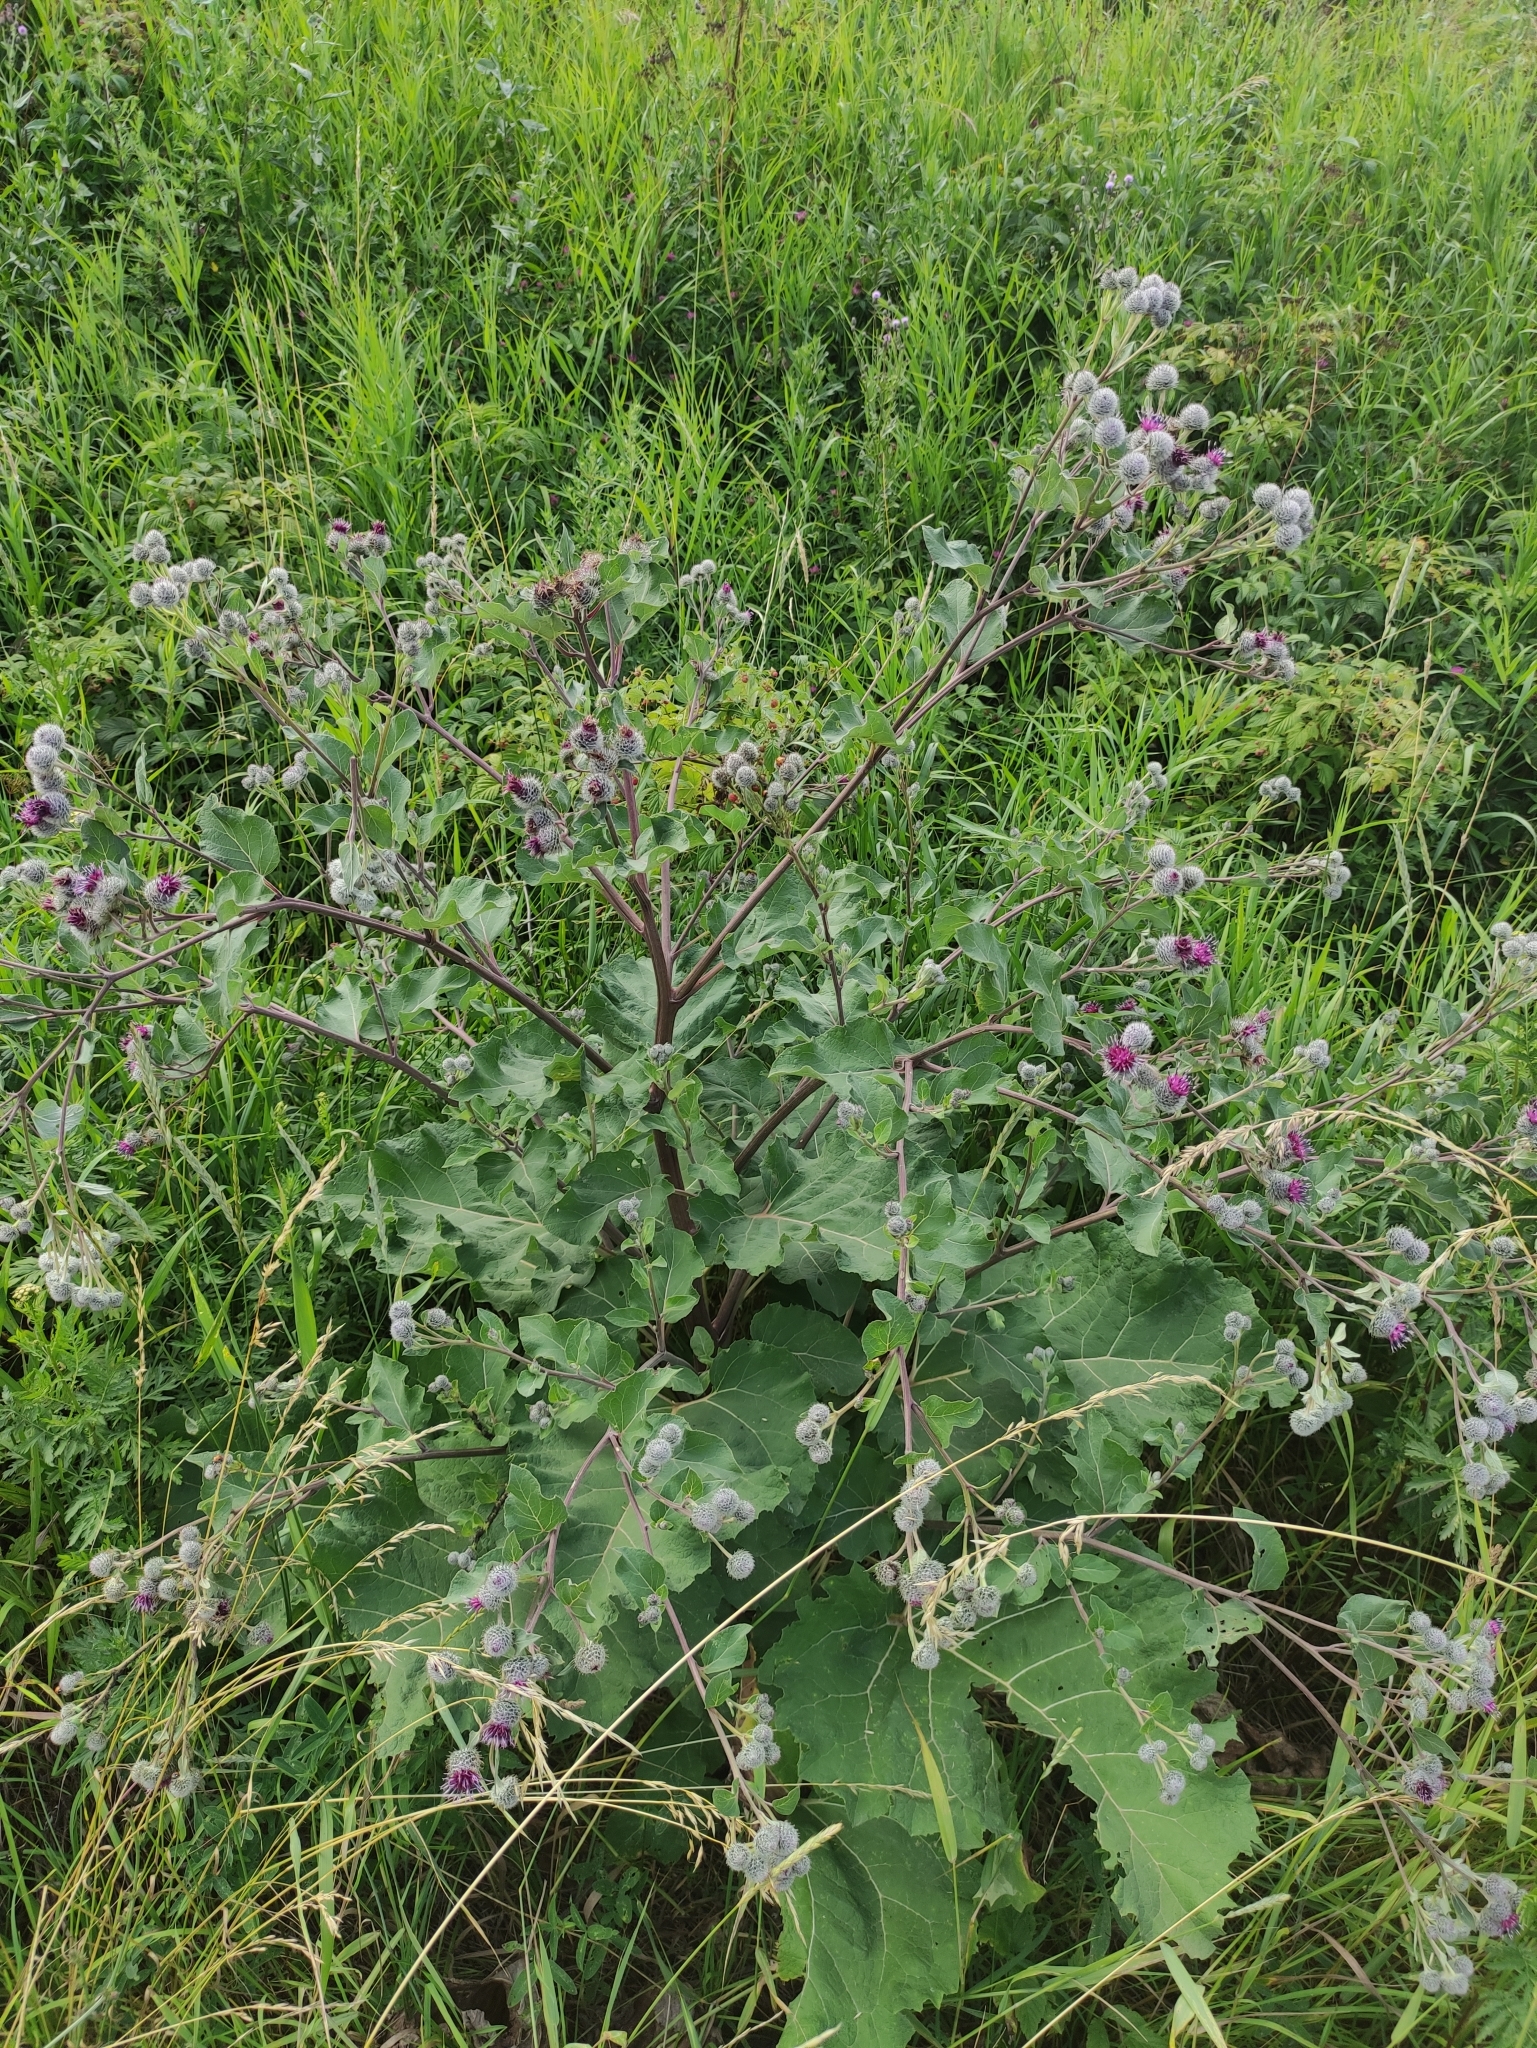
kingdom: Plantae
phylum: Tracheophyta
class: Magnoliopsida
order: Asterales
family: Asteraceae
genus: Arctium
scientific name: Arctium tomentosum
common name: Woolly burdock
